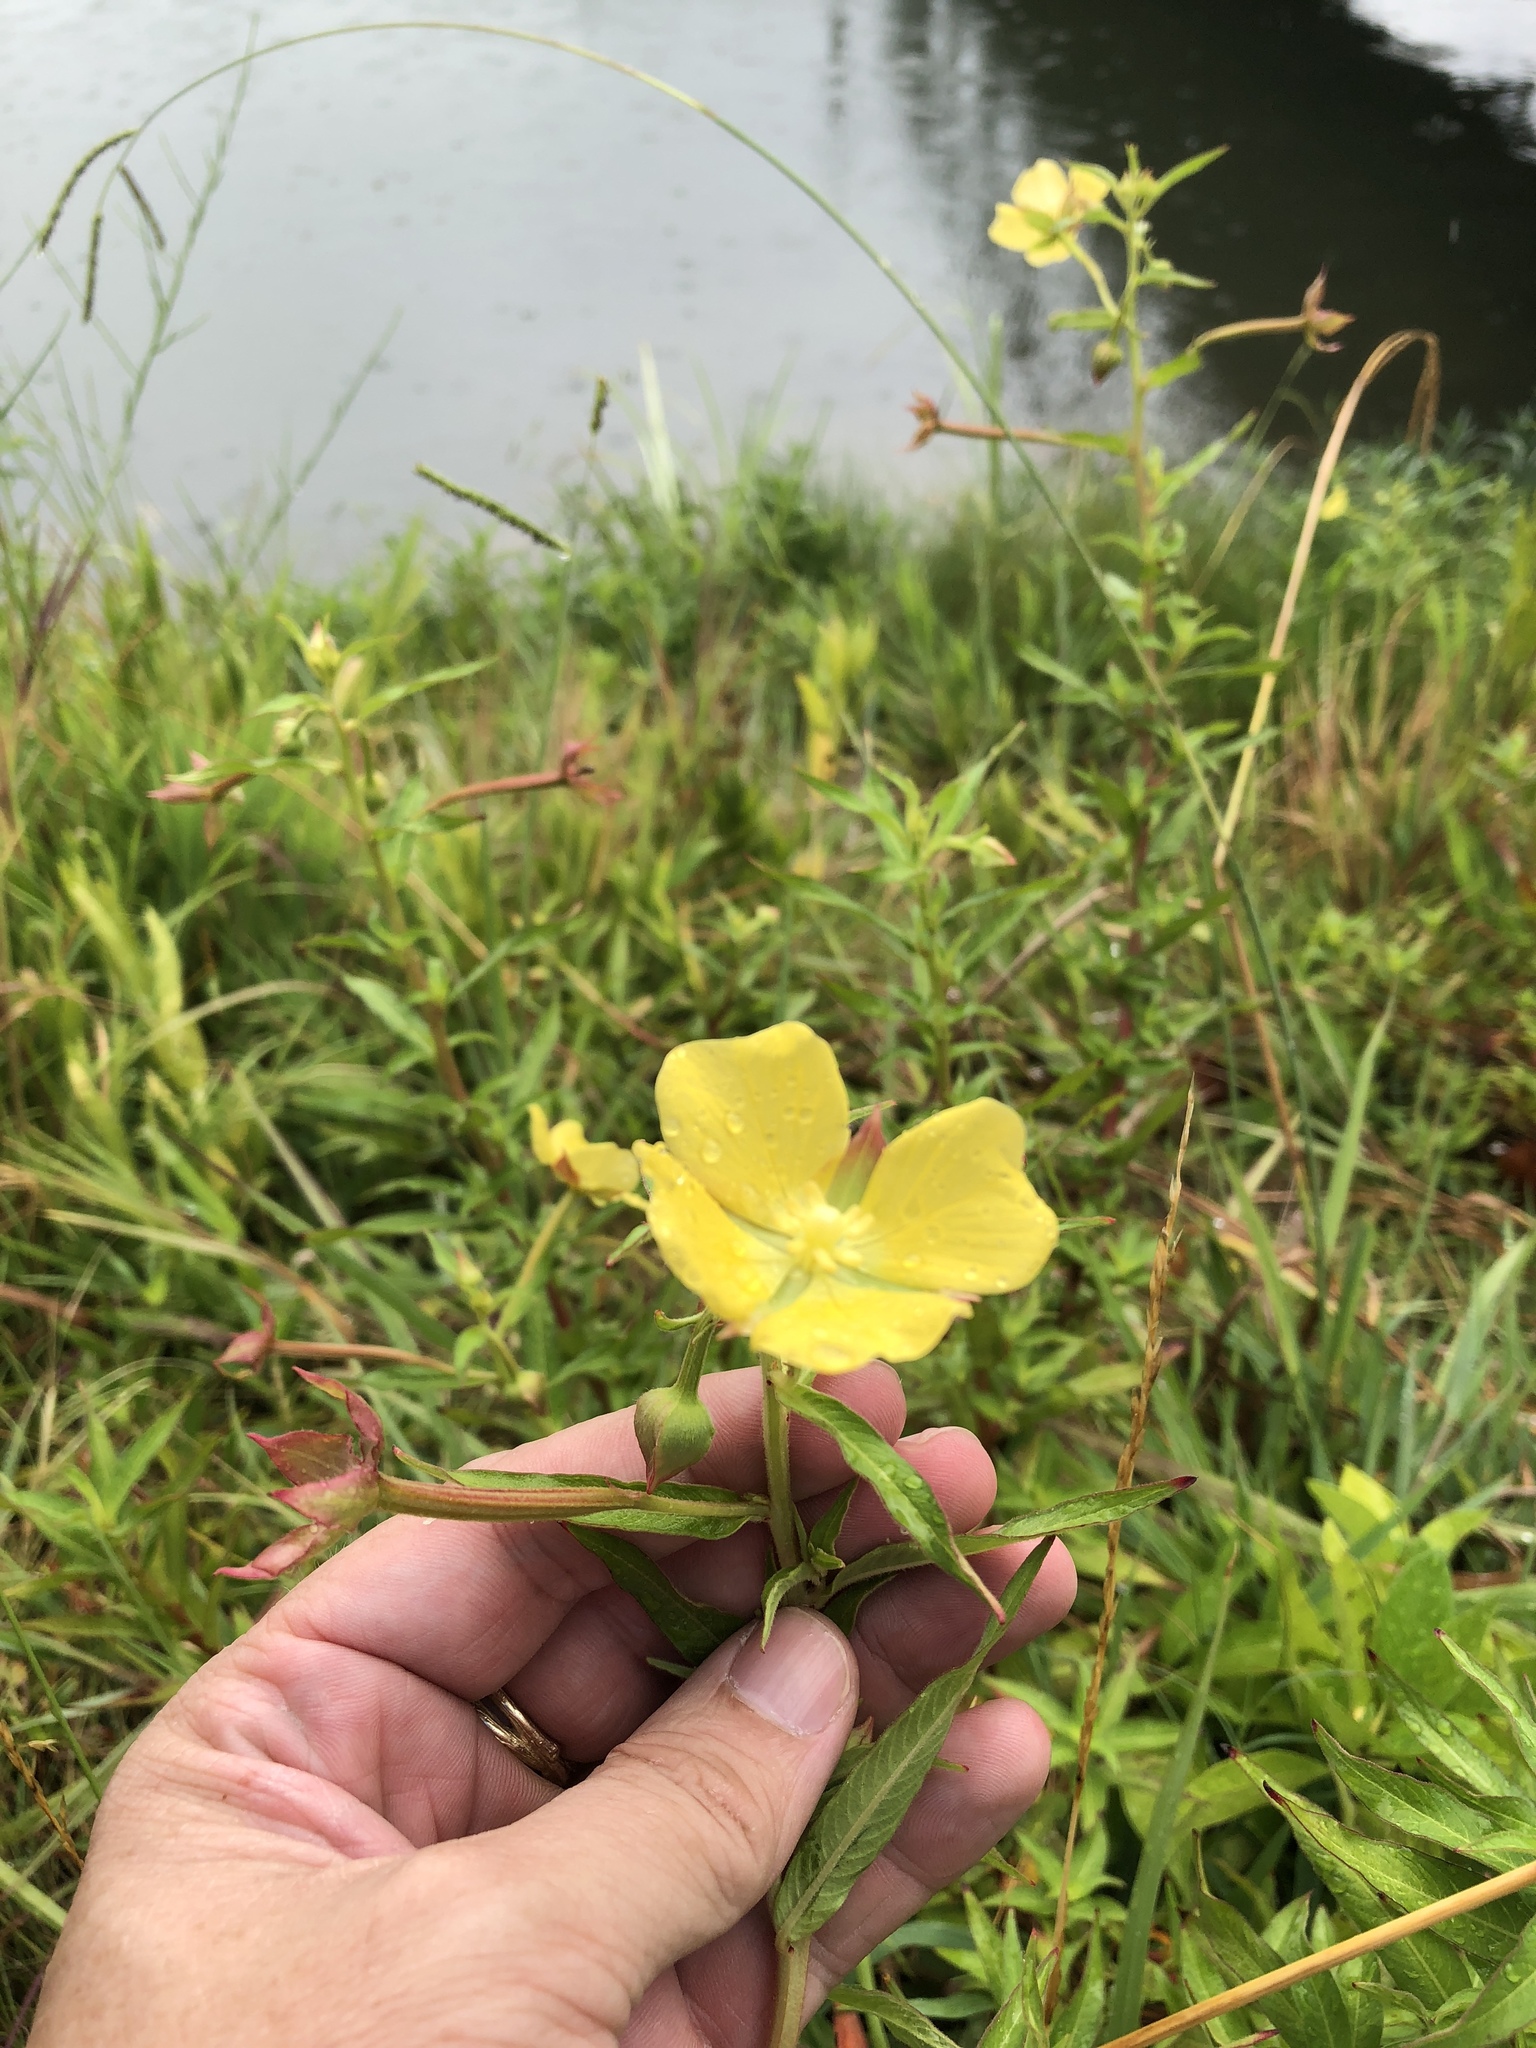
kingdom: Plantae
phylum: Tracheophyta
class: Magnoliopsida
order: Myrtales
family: Onagraceae
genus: Ludwigia
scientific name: Ludwigia octovalvis
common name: Water-primrose
